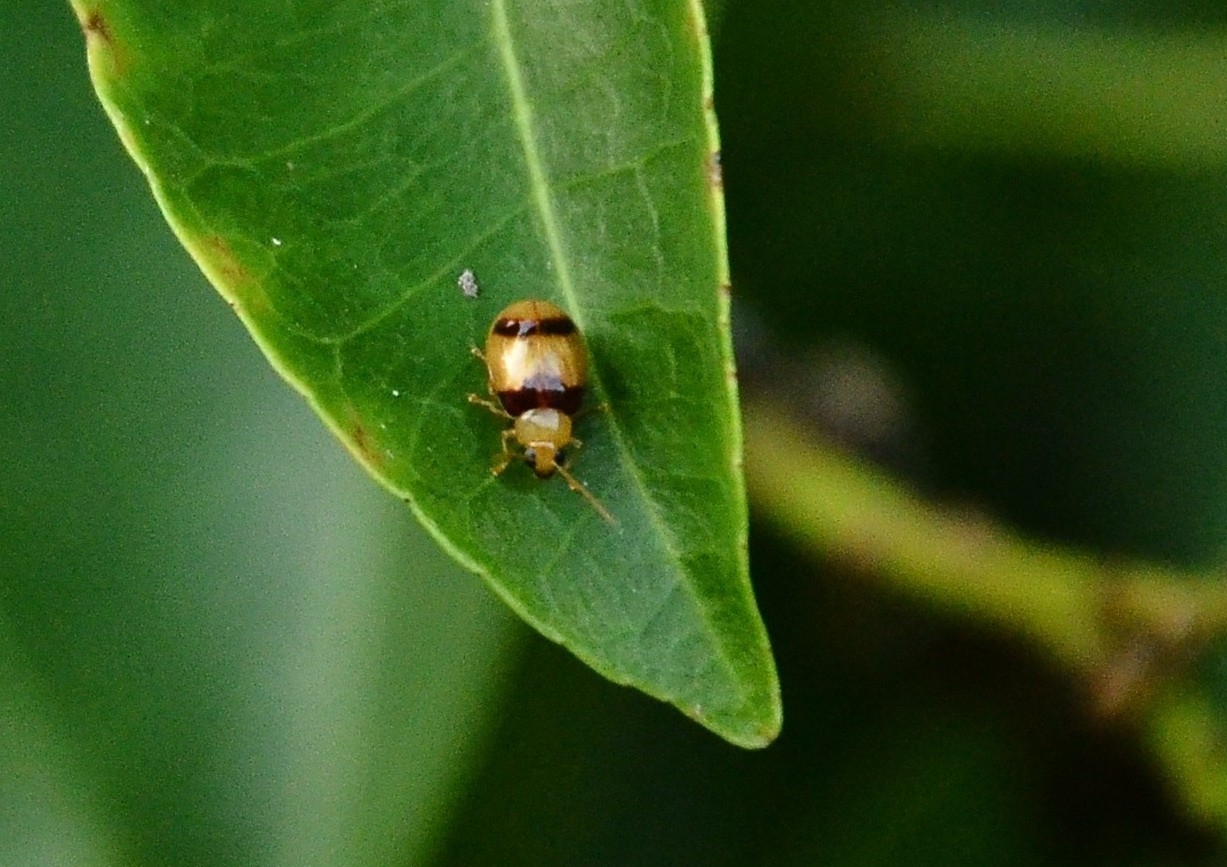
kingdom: Animalia
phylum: Arthropoda
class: Insecta
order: Coleoptera
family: Chrysomelidae
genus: Monolepta
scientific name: Monolepta
